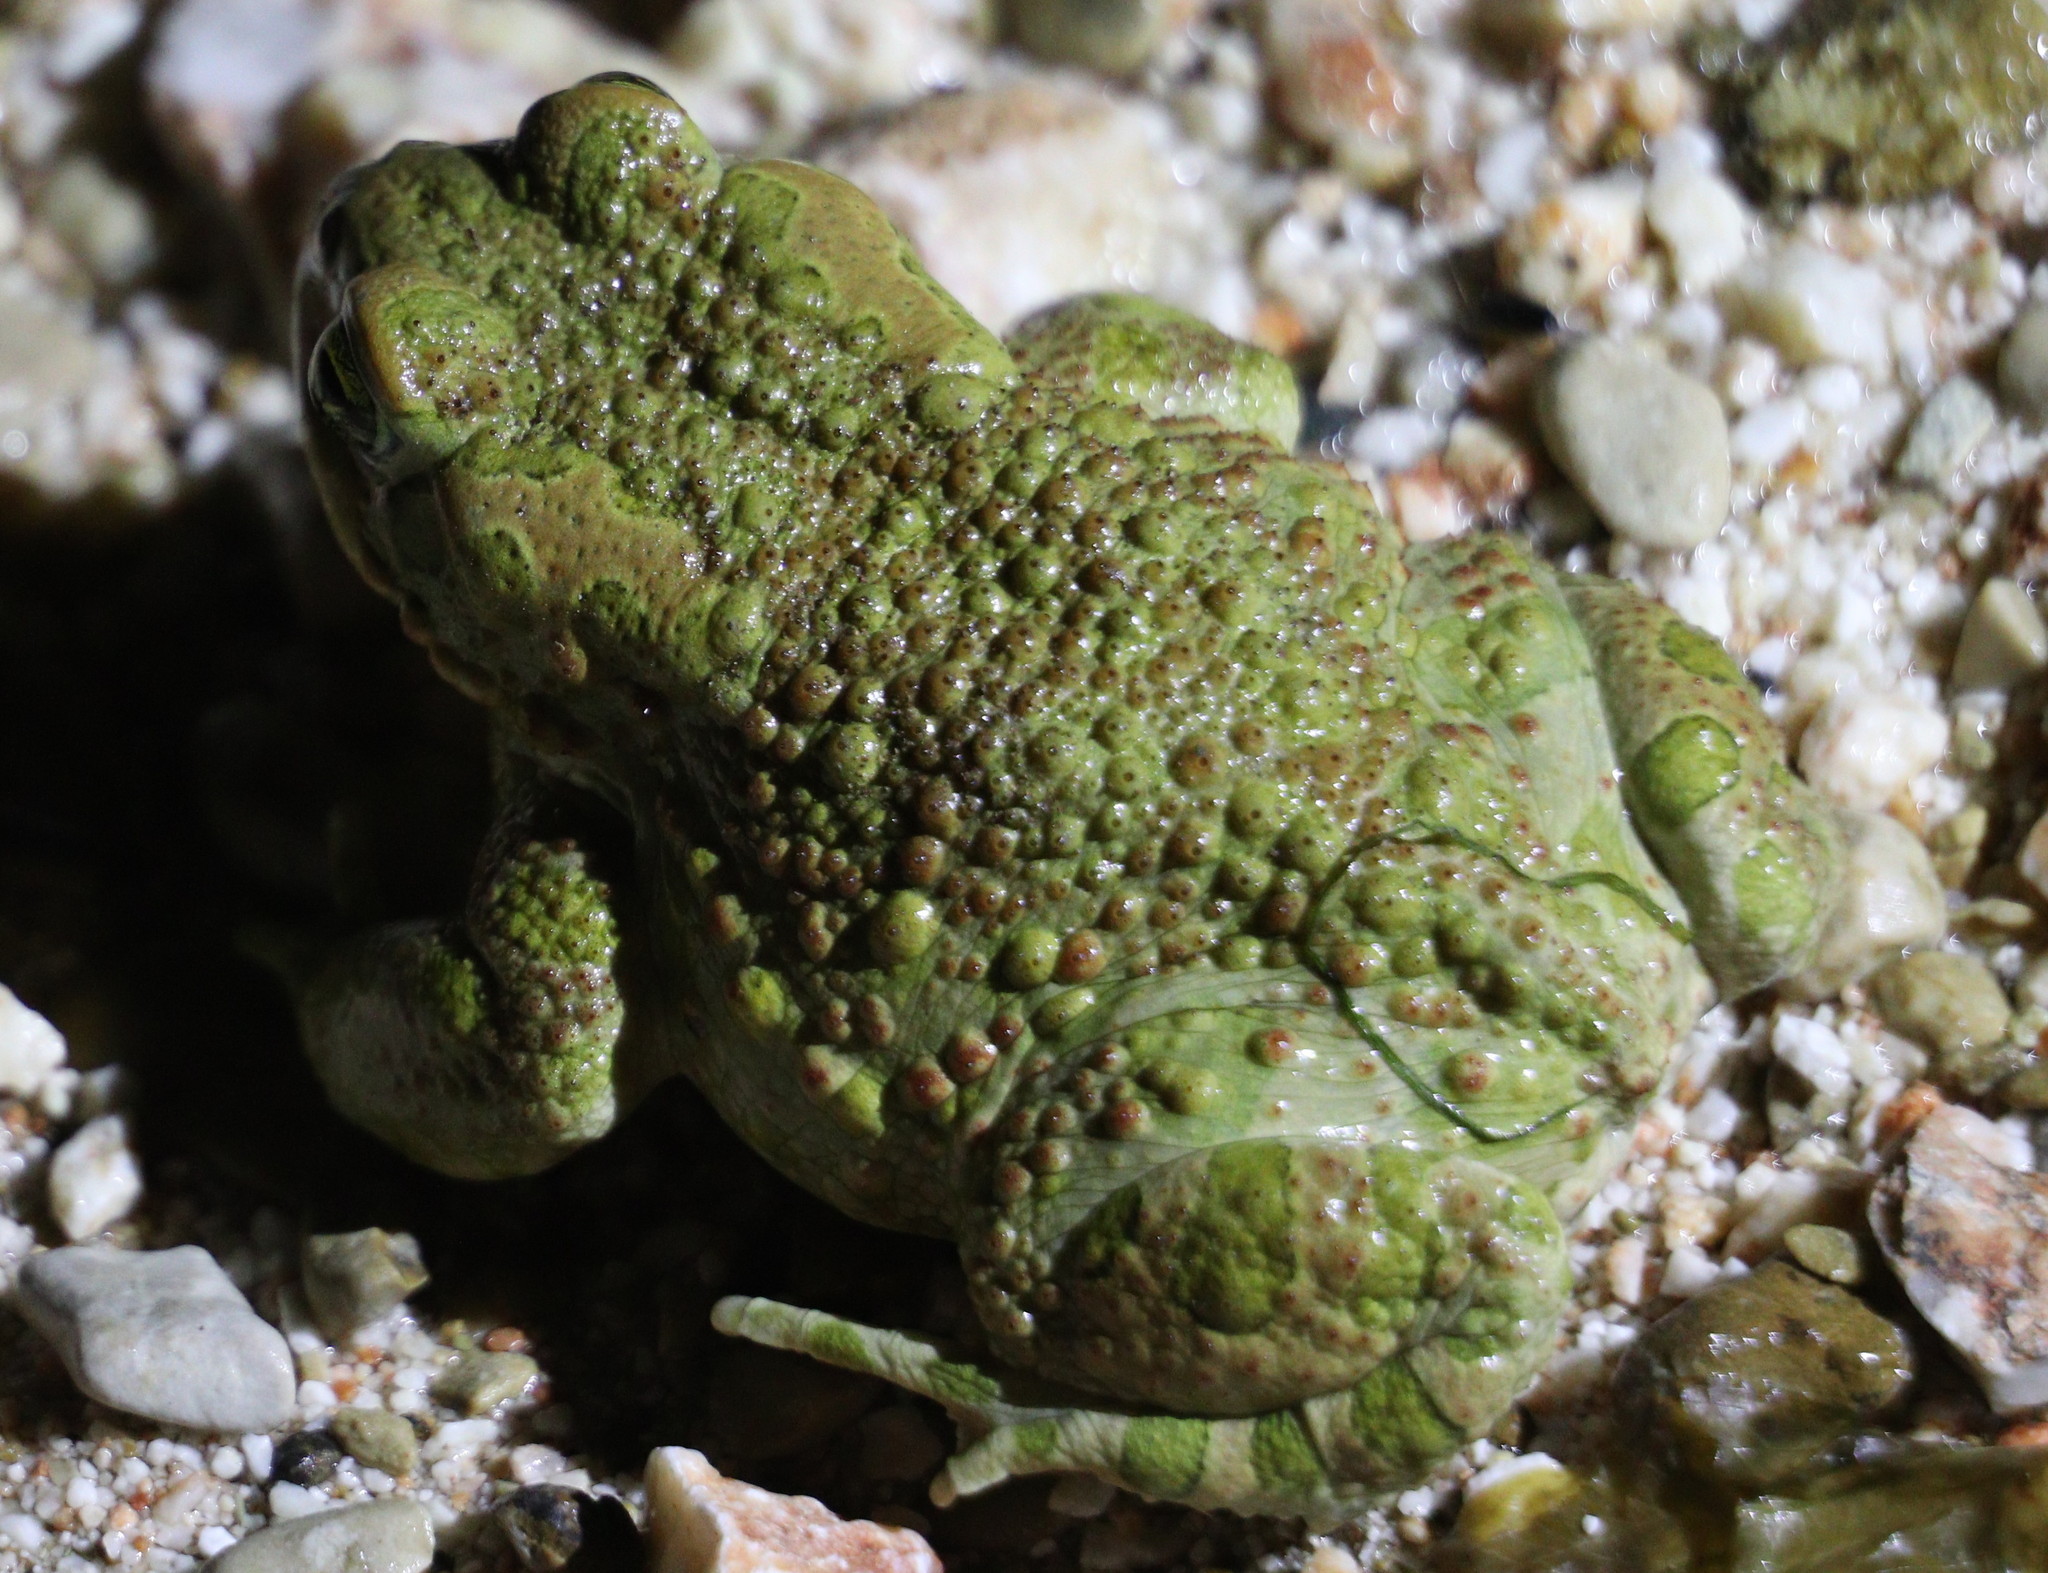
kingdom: Animalia
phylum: Chordata
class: Amphibia
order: Anura
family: Bufonidae
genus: Bufotes
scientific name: Bufotes viridis
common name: European green toad
